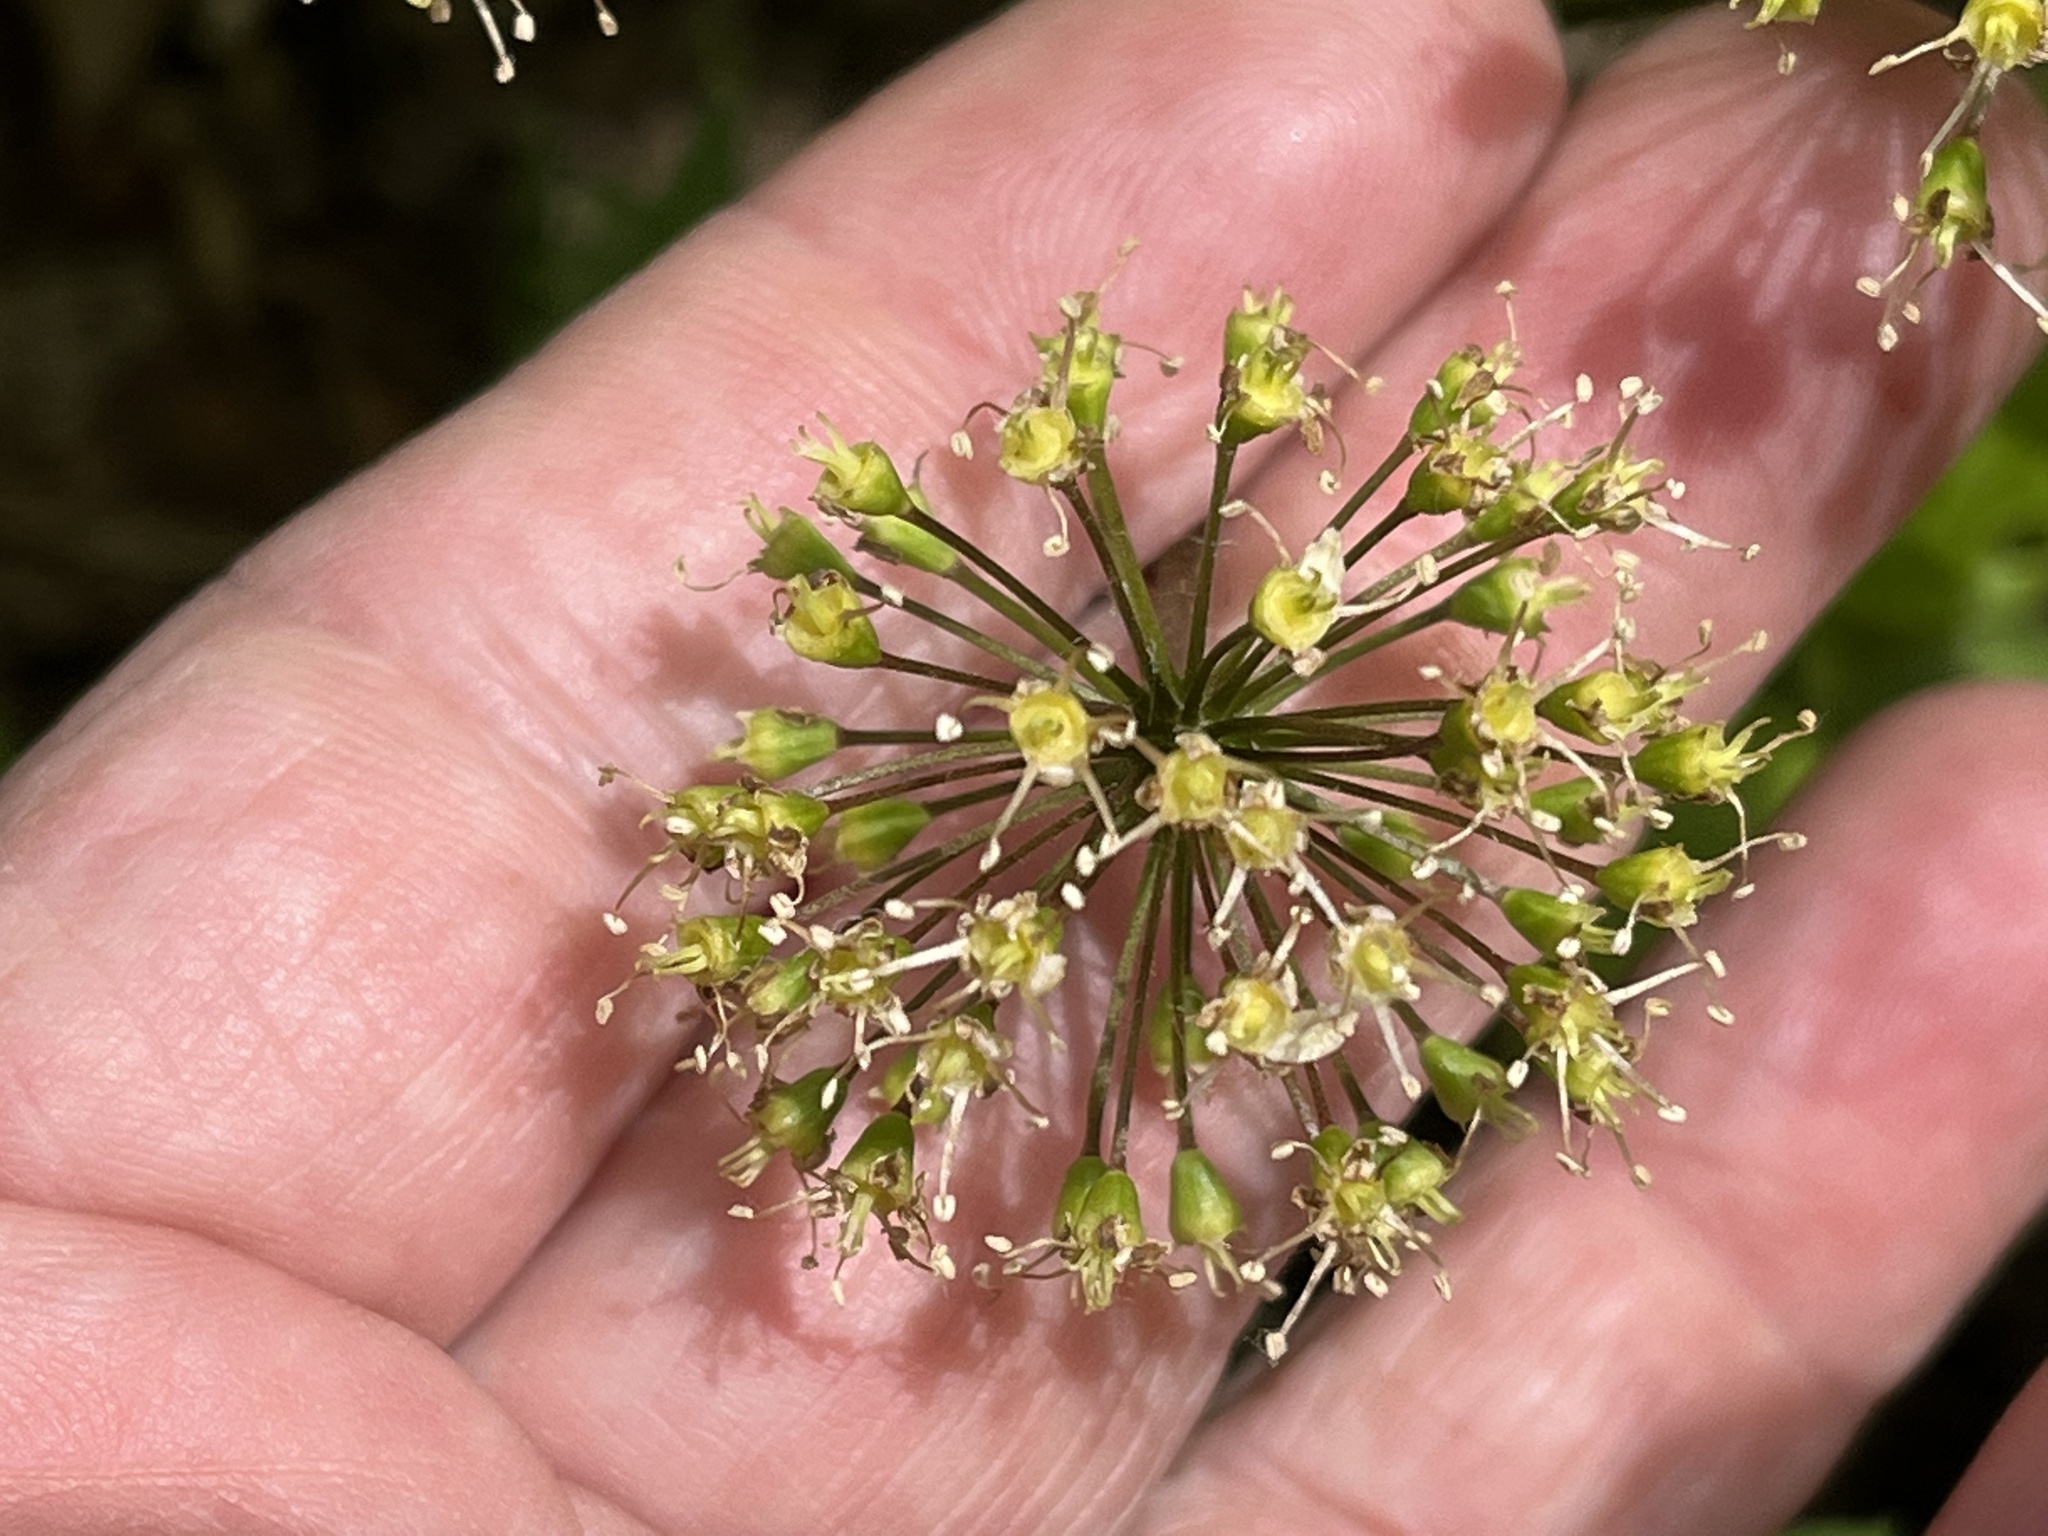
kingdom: Plantae
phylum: Tracheophyta
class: Magnoliopsida
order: Apiales
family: Araliaceae
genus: Aralia
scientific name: Aralia nudicaulis
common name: Wild sarsaparilla
